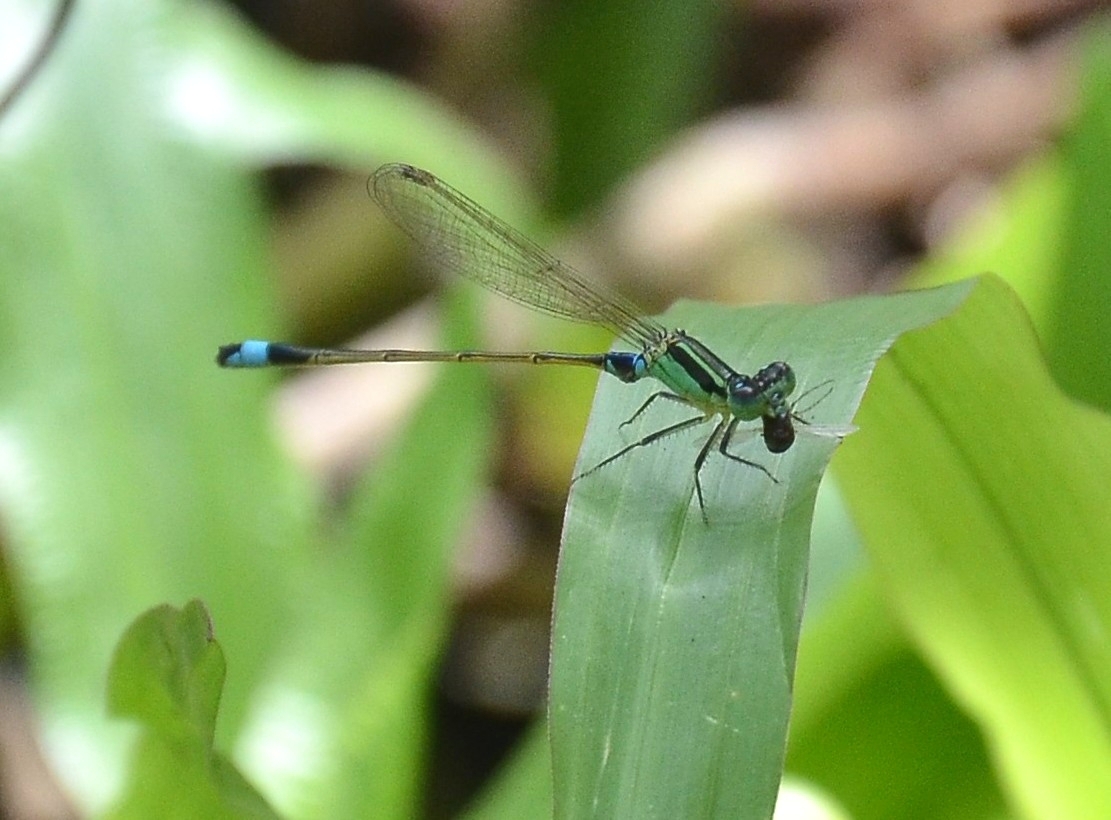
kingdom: Animalia
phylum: Arthropoda
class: Insecta
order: Odonata
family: Coenagrionidae
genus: Ischnura
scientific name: Ischnura senegalensis
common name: Tropical bluetail
